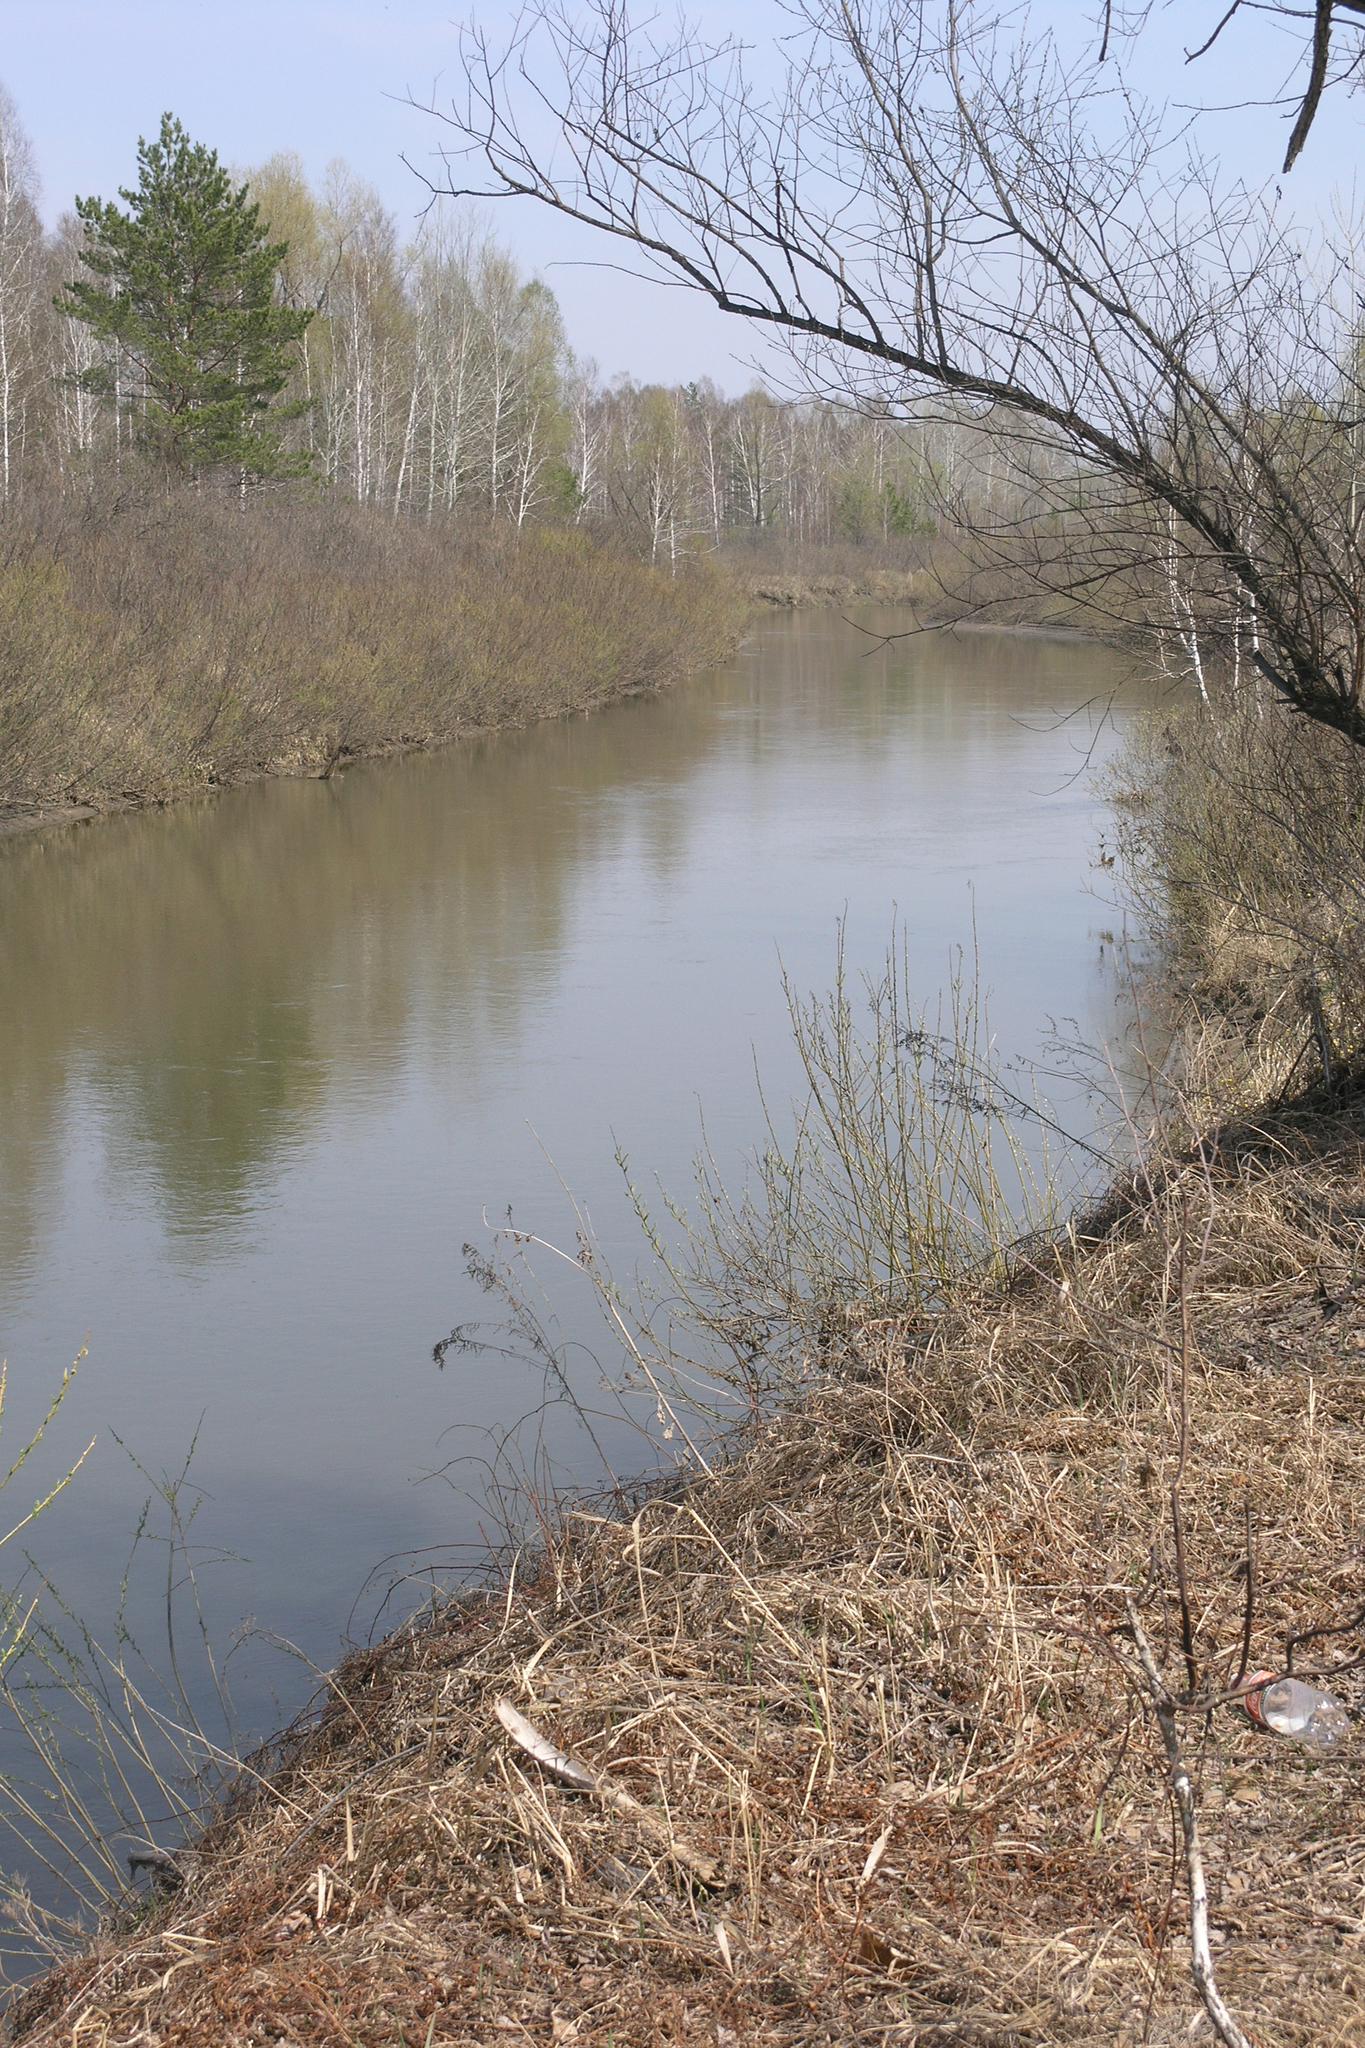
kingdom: Plantae
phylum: Tracheophyta
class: Pinopsida
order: Pinales
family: Pinaceae
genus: Pinus
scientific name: Pinus sylvestris
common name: Scots pine
